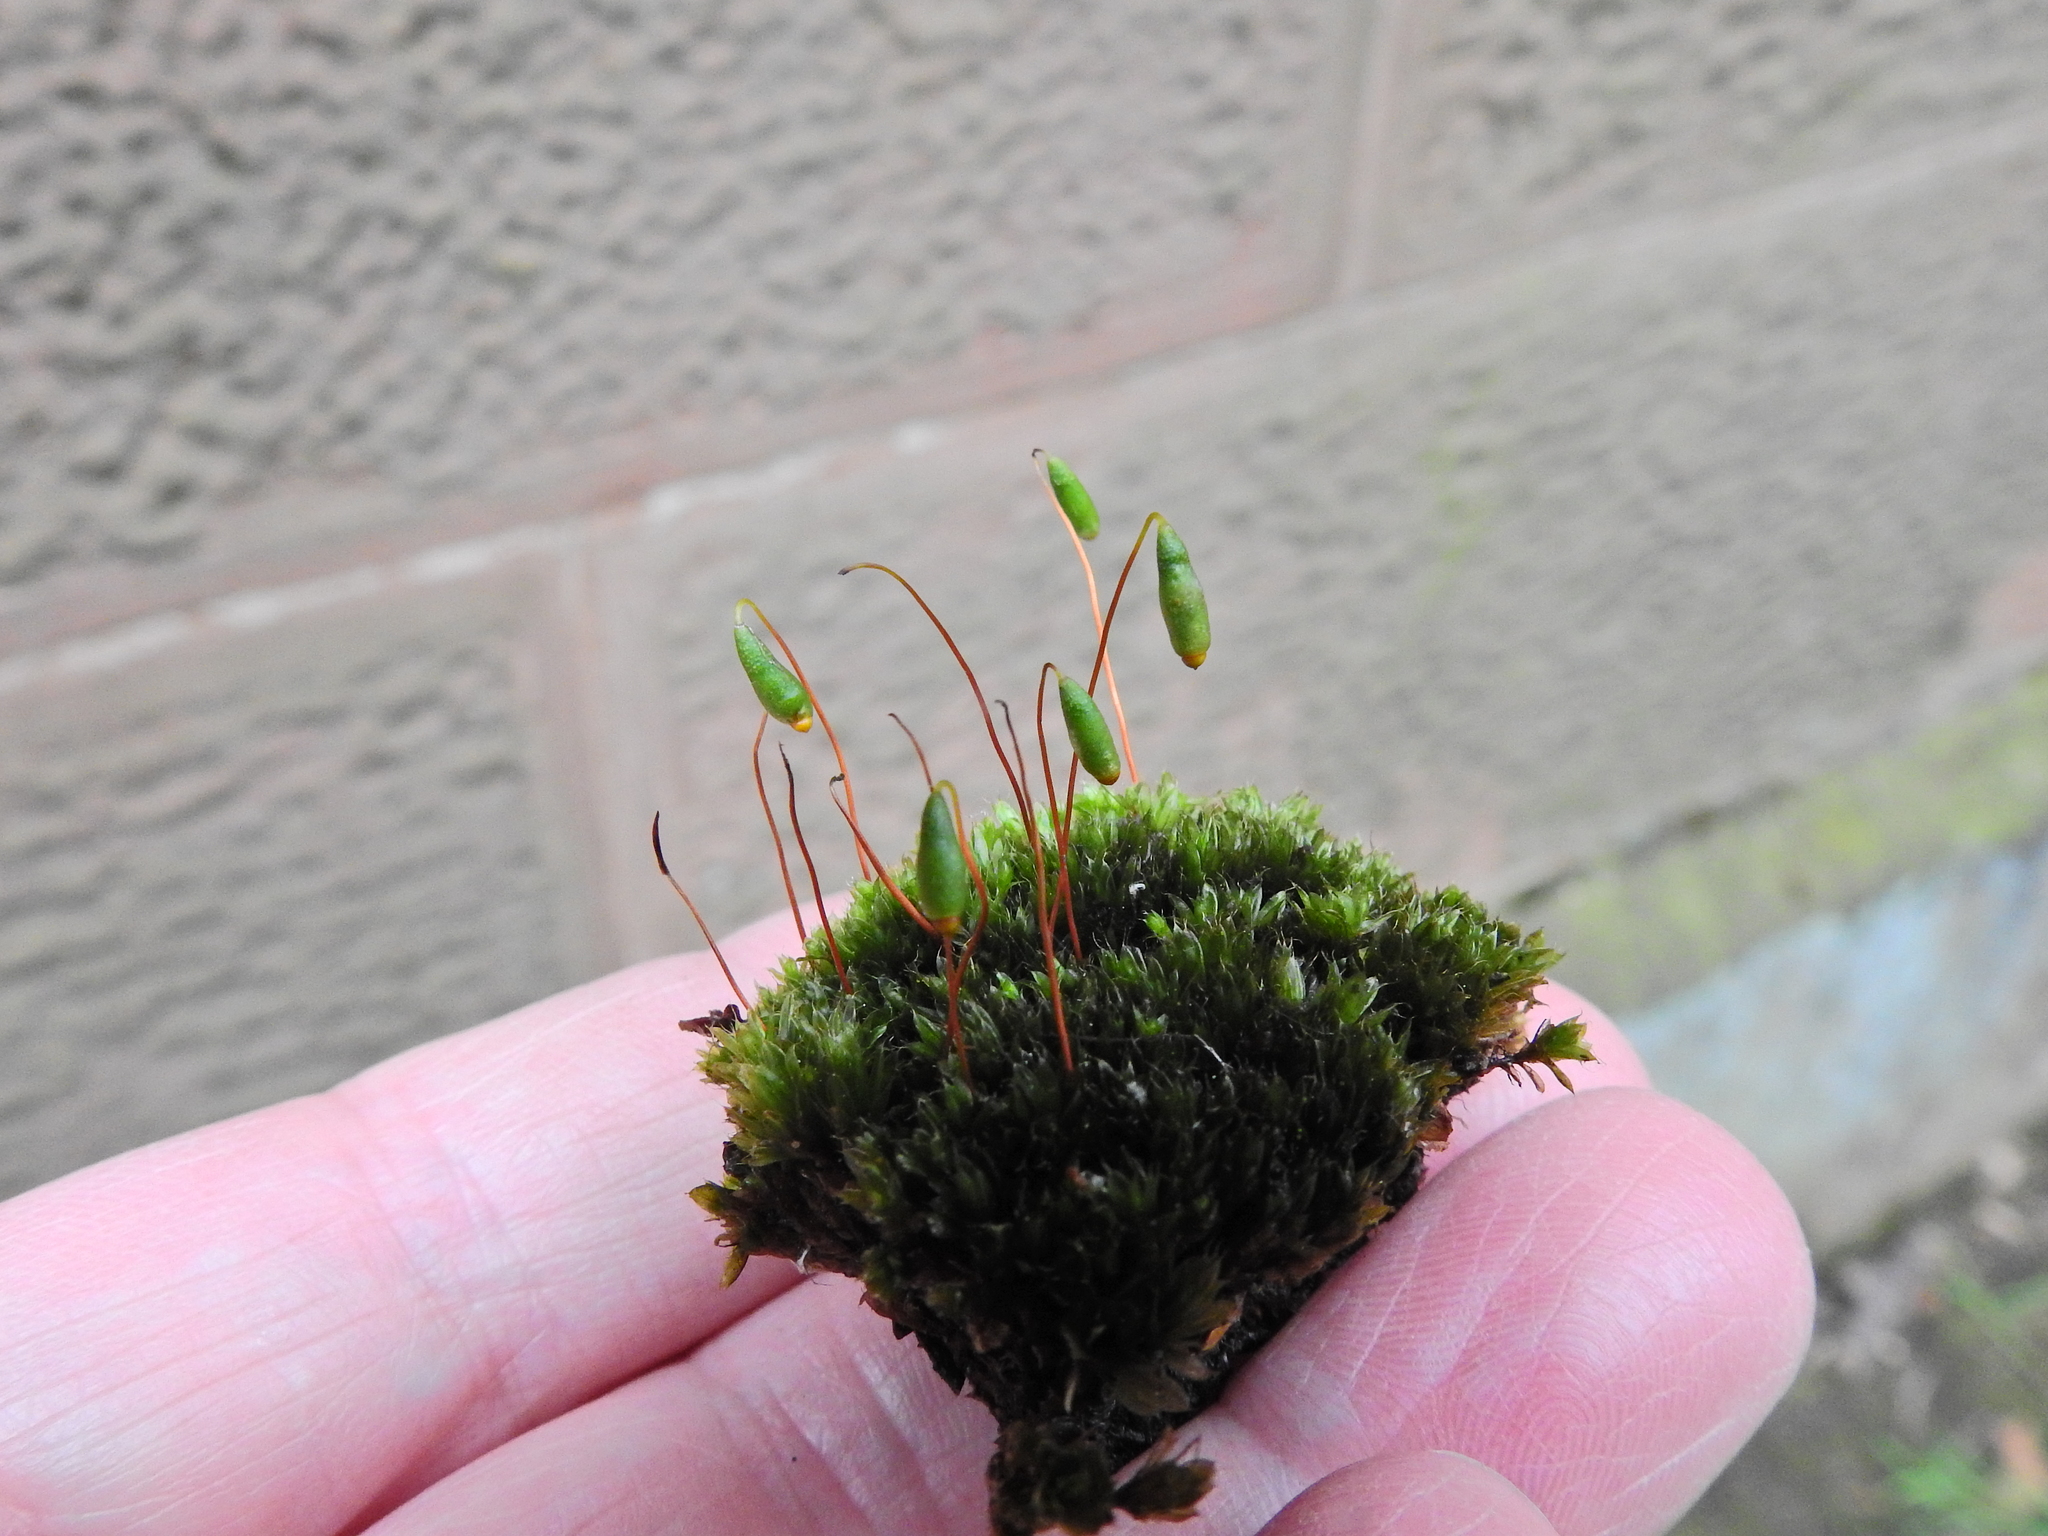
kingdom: Plantae
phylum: Bryophyta
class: Bryopsida
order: Bryales
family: Bryaceae
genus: Rosulabryum
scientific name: Rosulabryum capillare
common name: Capillary thread-moss
